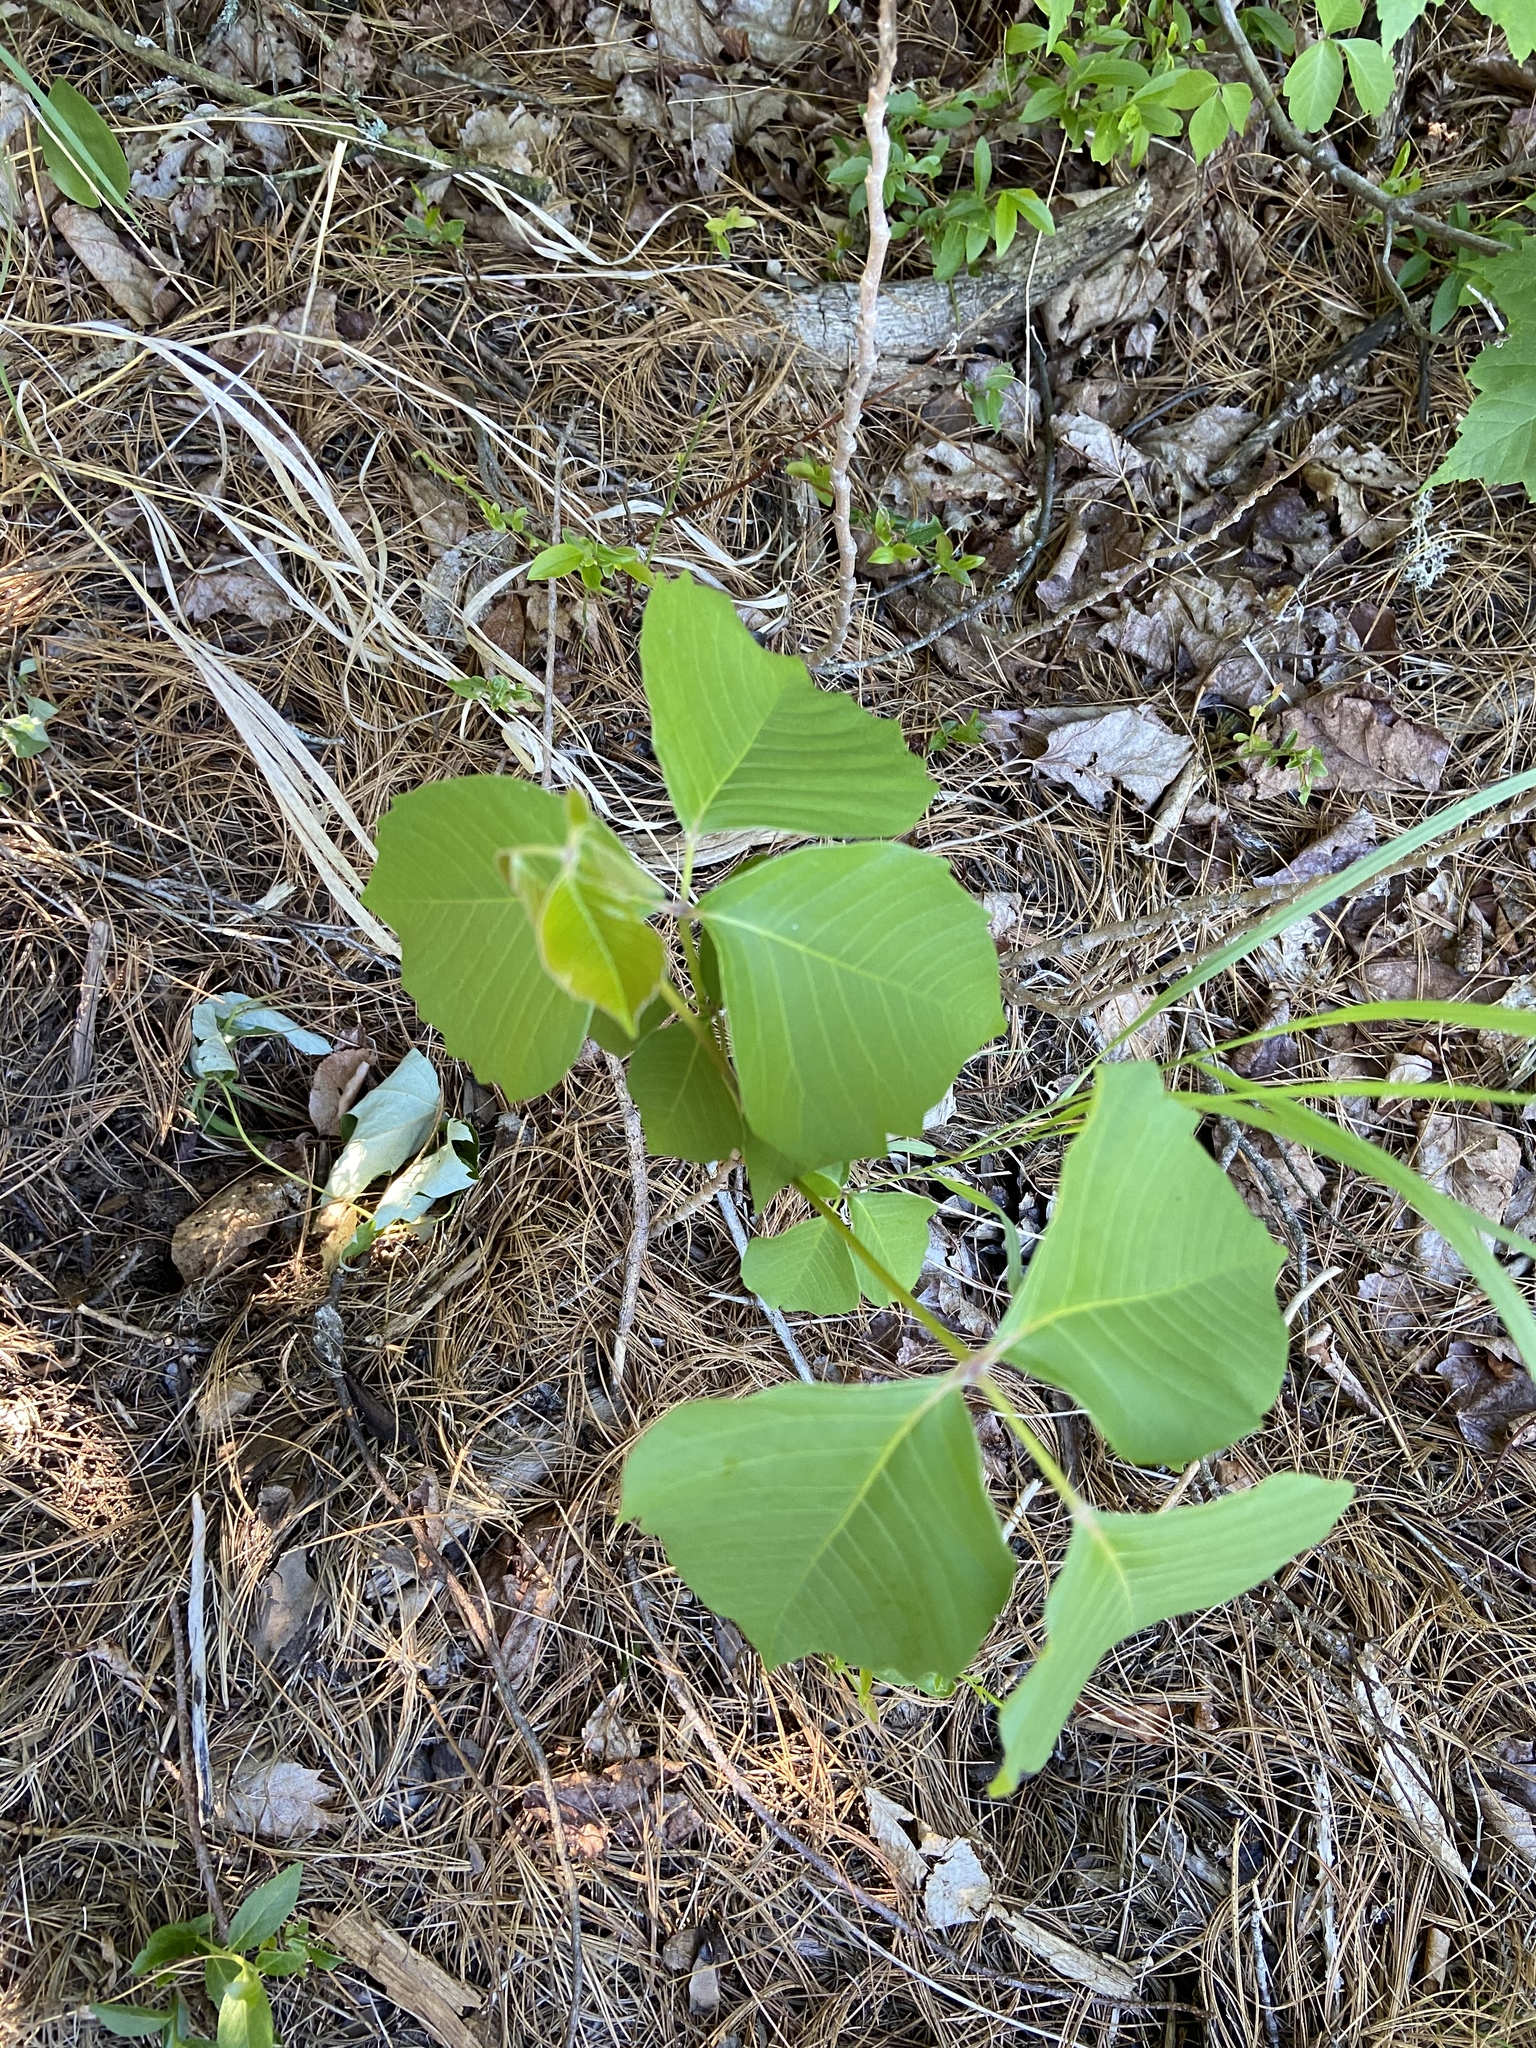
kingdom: Plantae
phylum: Tracheophyta
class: Magnoliopsida
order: Sapindales
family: Anacardiaceae
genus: Toxicodendron
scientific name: Toxicodendron rydbergii
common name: Rydberg's poison-ivy
